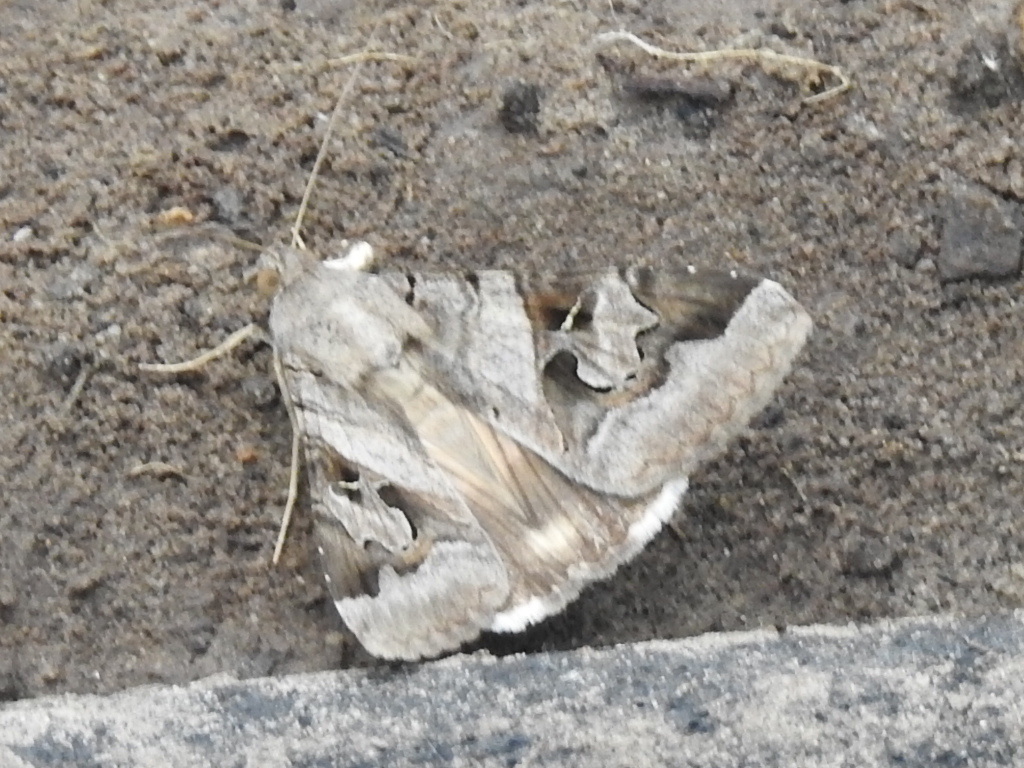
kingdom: Animalia
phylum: Arthropoda
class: Insecta
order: Lepidoptera
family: Erebidae
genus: Melipotis
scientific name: Melipotis indomita
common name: Moth
